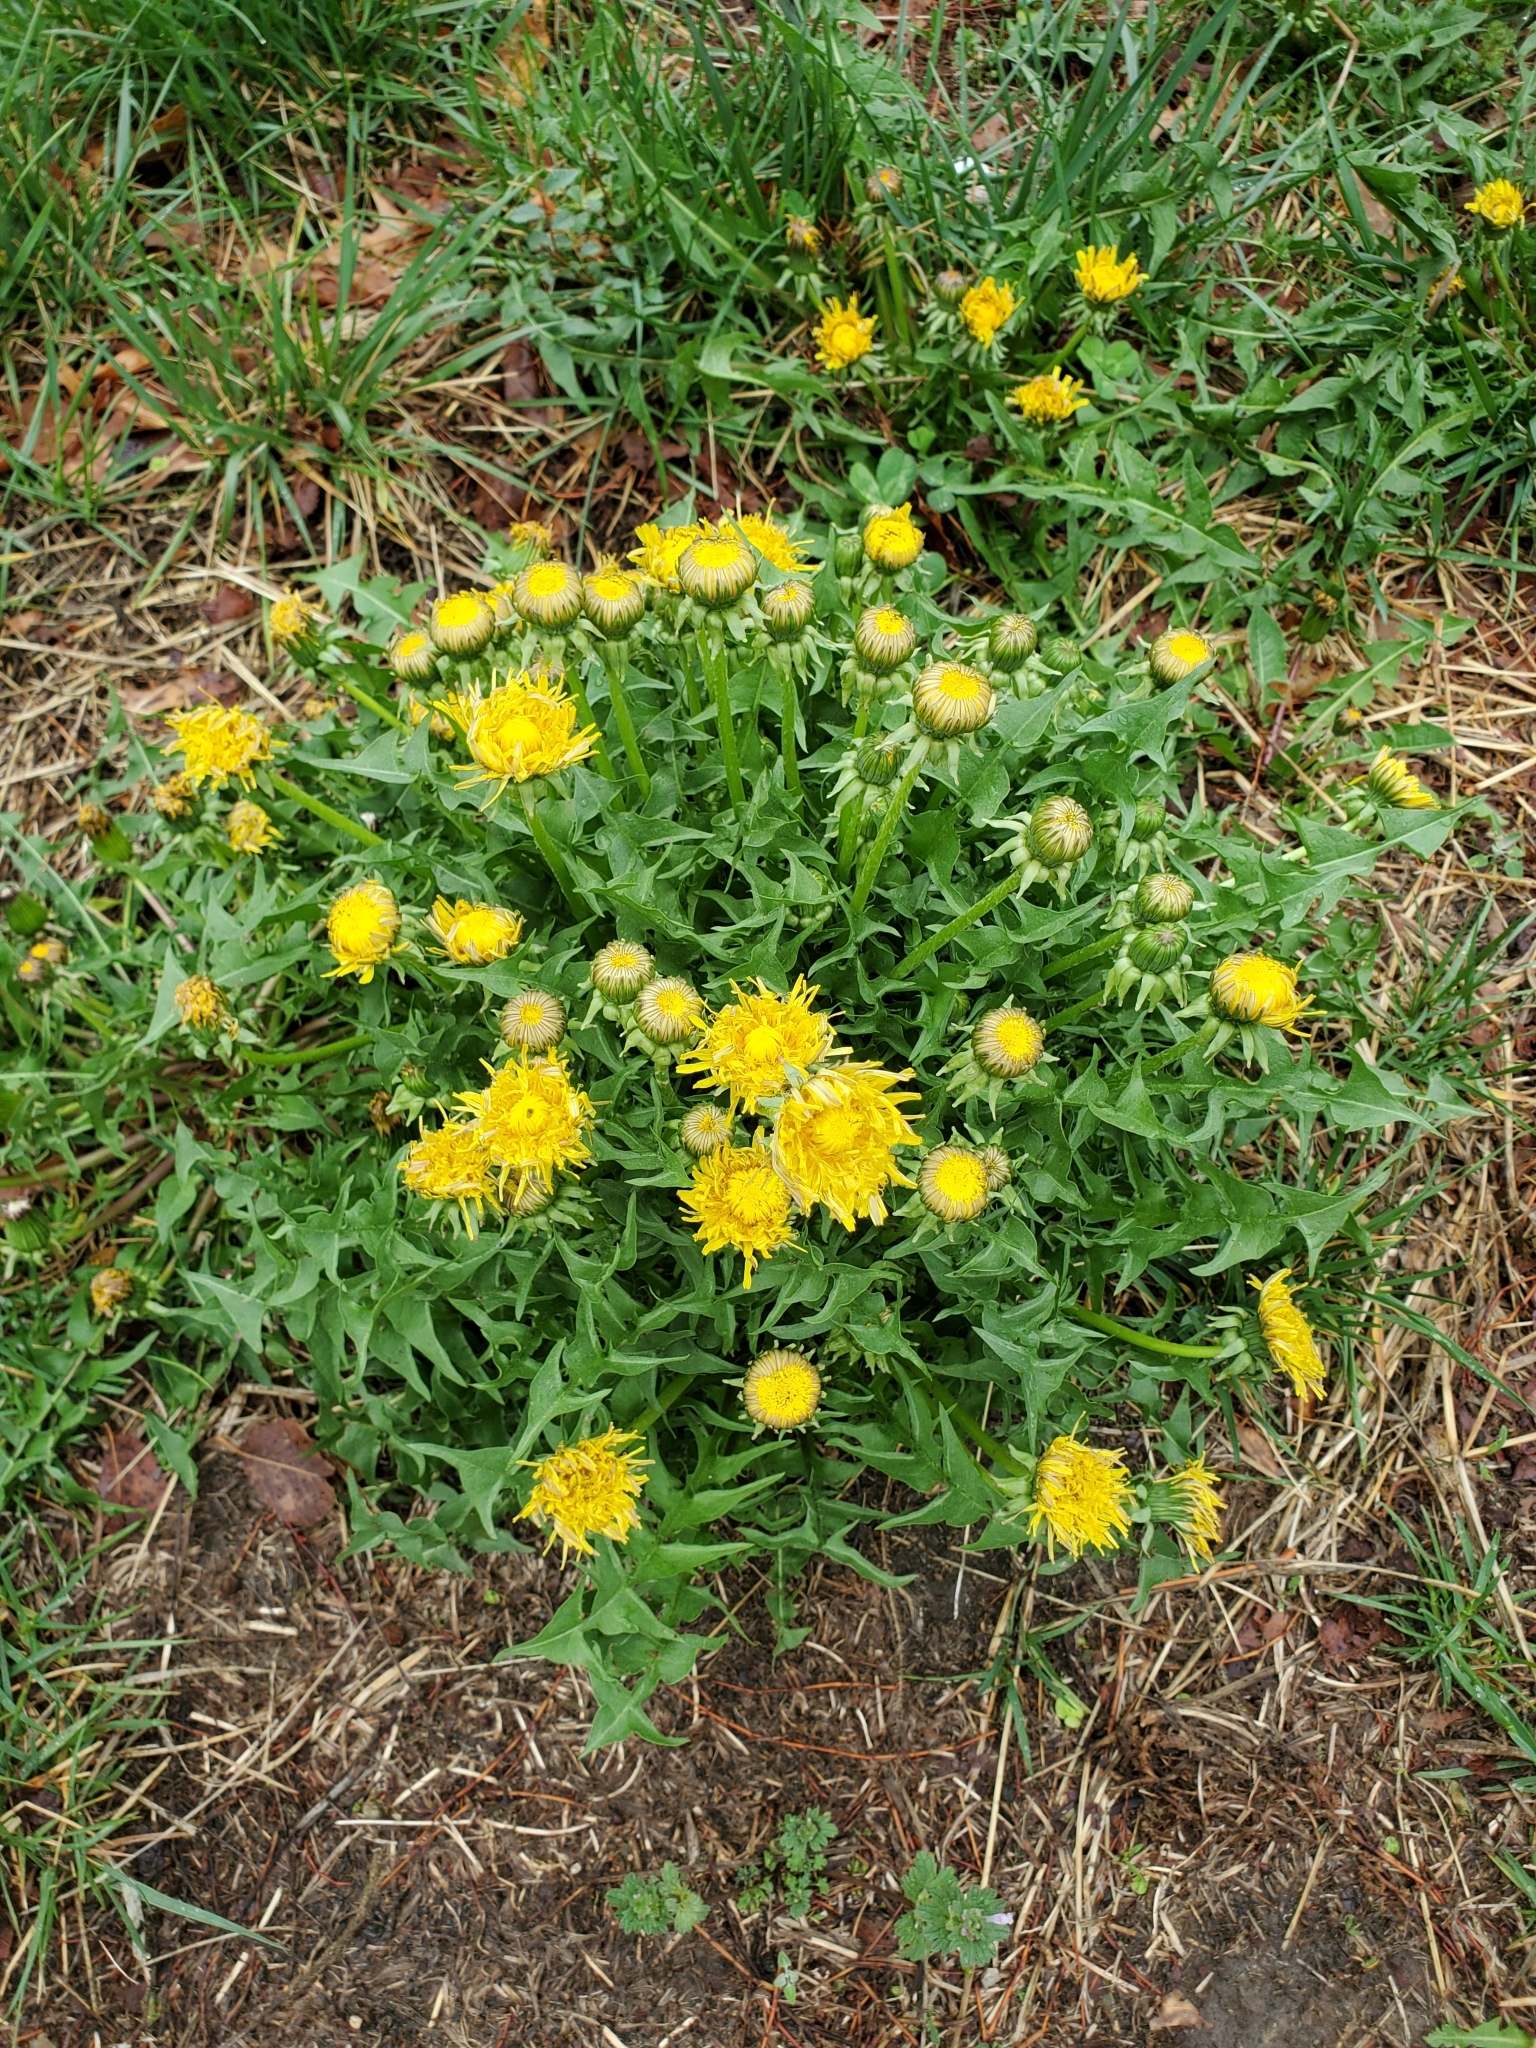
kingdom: Plantae
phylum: Tracheophyta
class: Magnoliopsida
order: Asterales
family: Asteraceae
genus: Taraxacum
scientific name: Taraxacum
